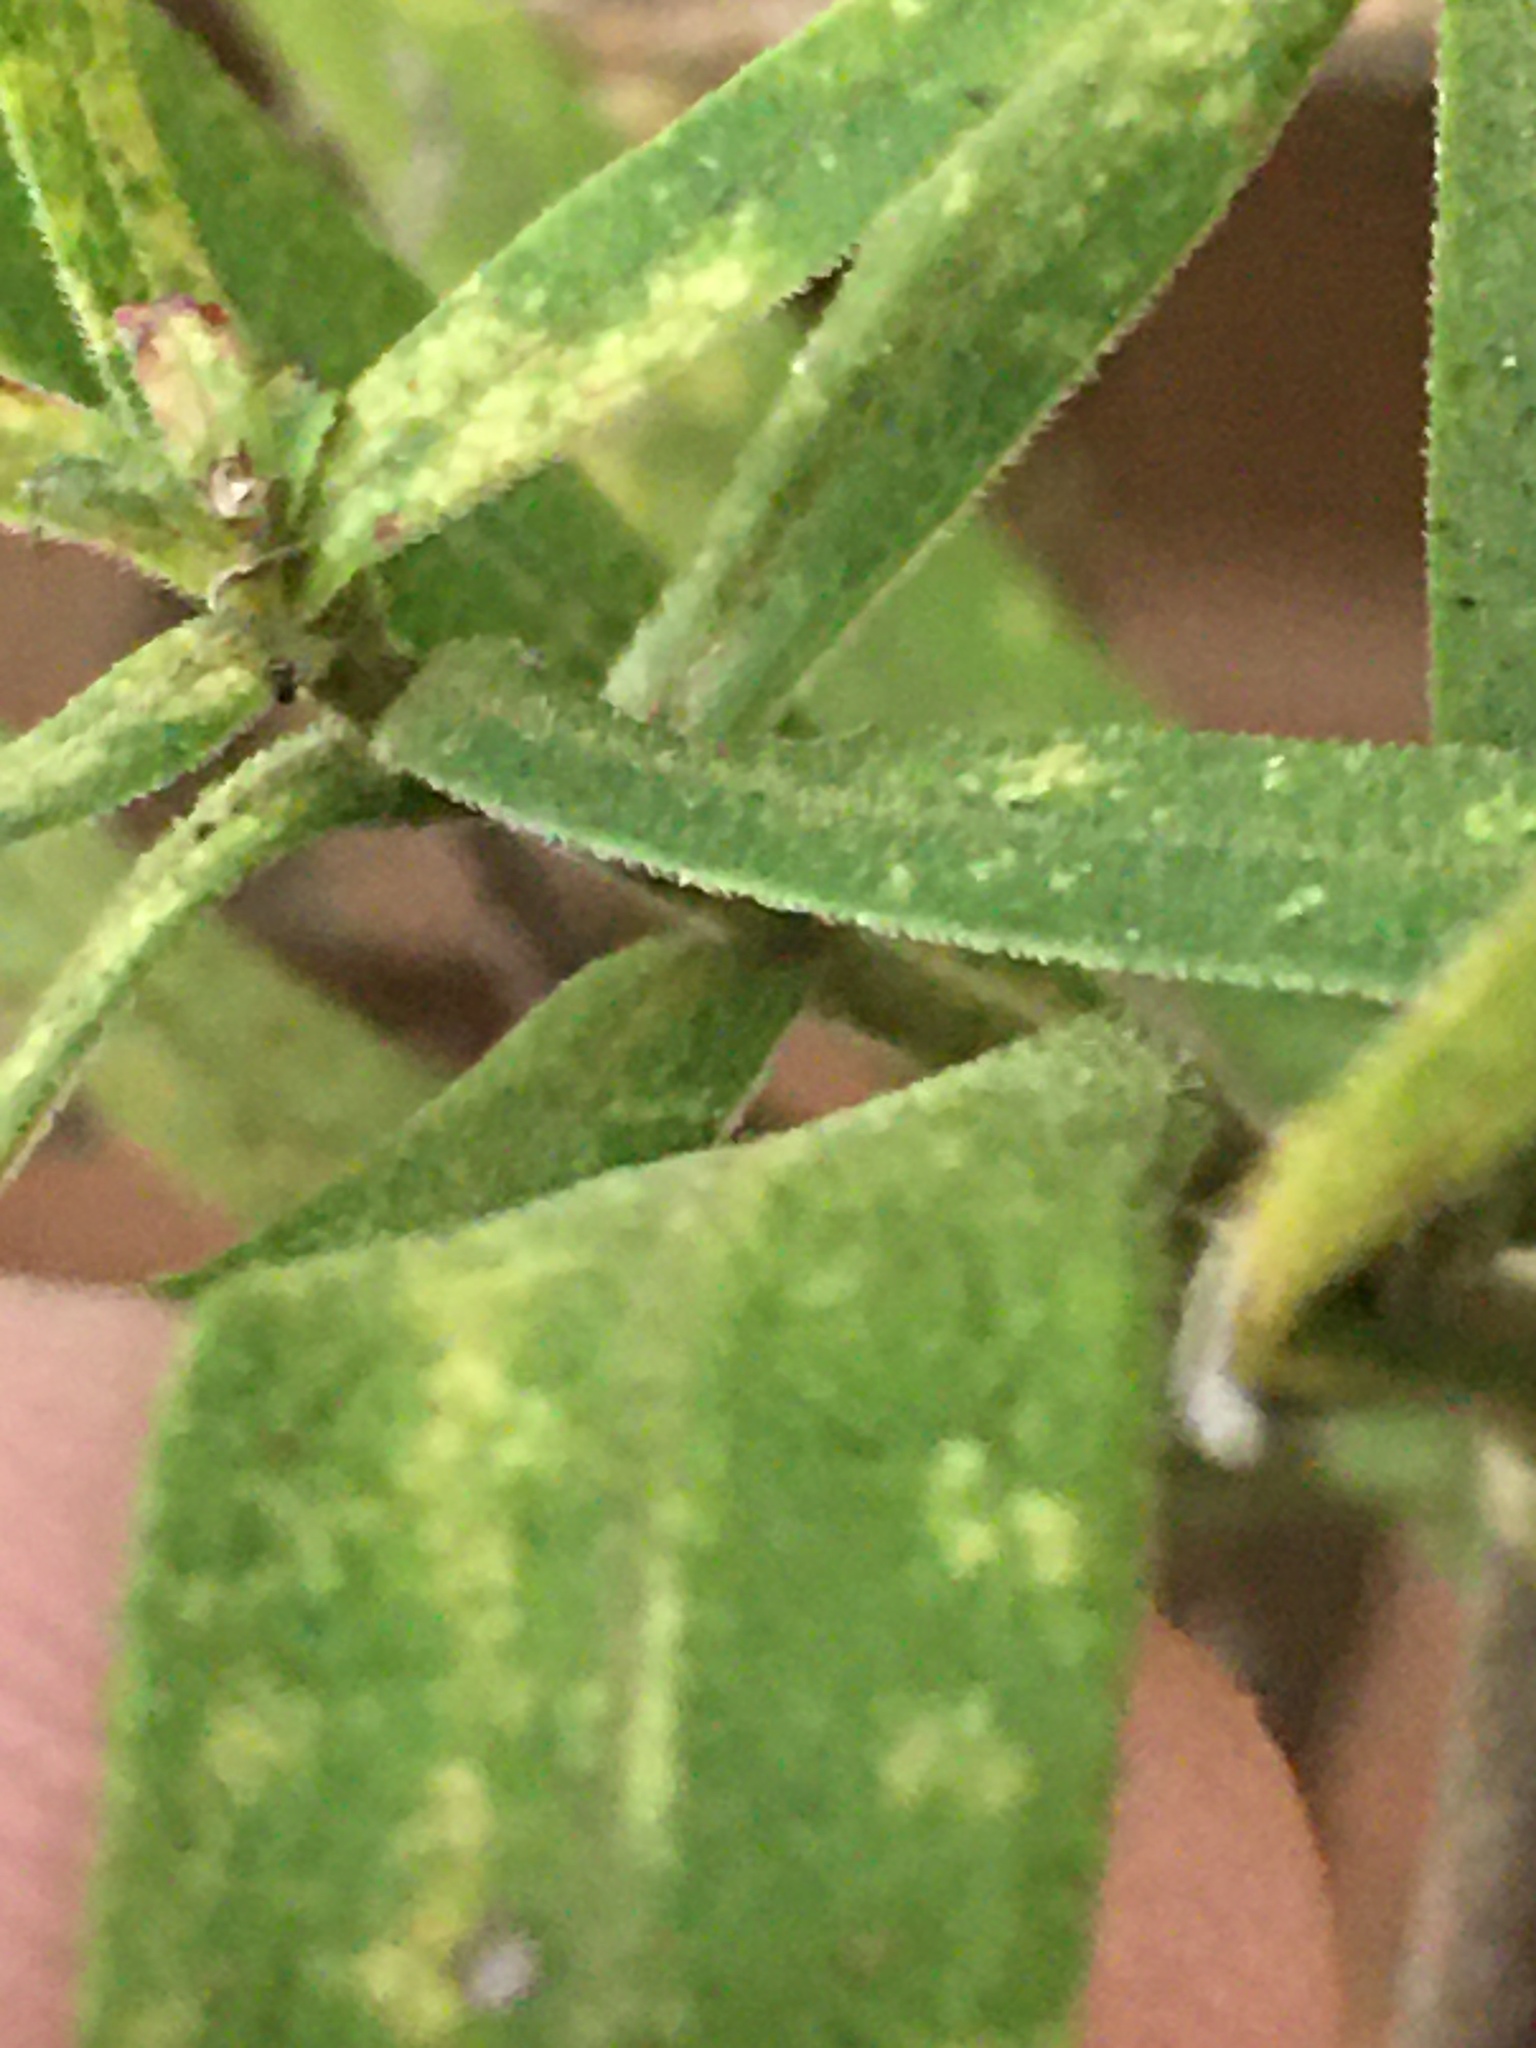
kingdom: Plantae
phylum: Tracheophyta
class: Magnoliopsida
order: Asterales
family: Asteraceae
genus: Symphyotrichum
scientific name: Symphyotrichum praealtum
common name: Willow aster
